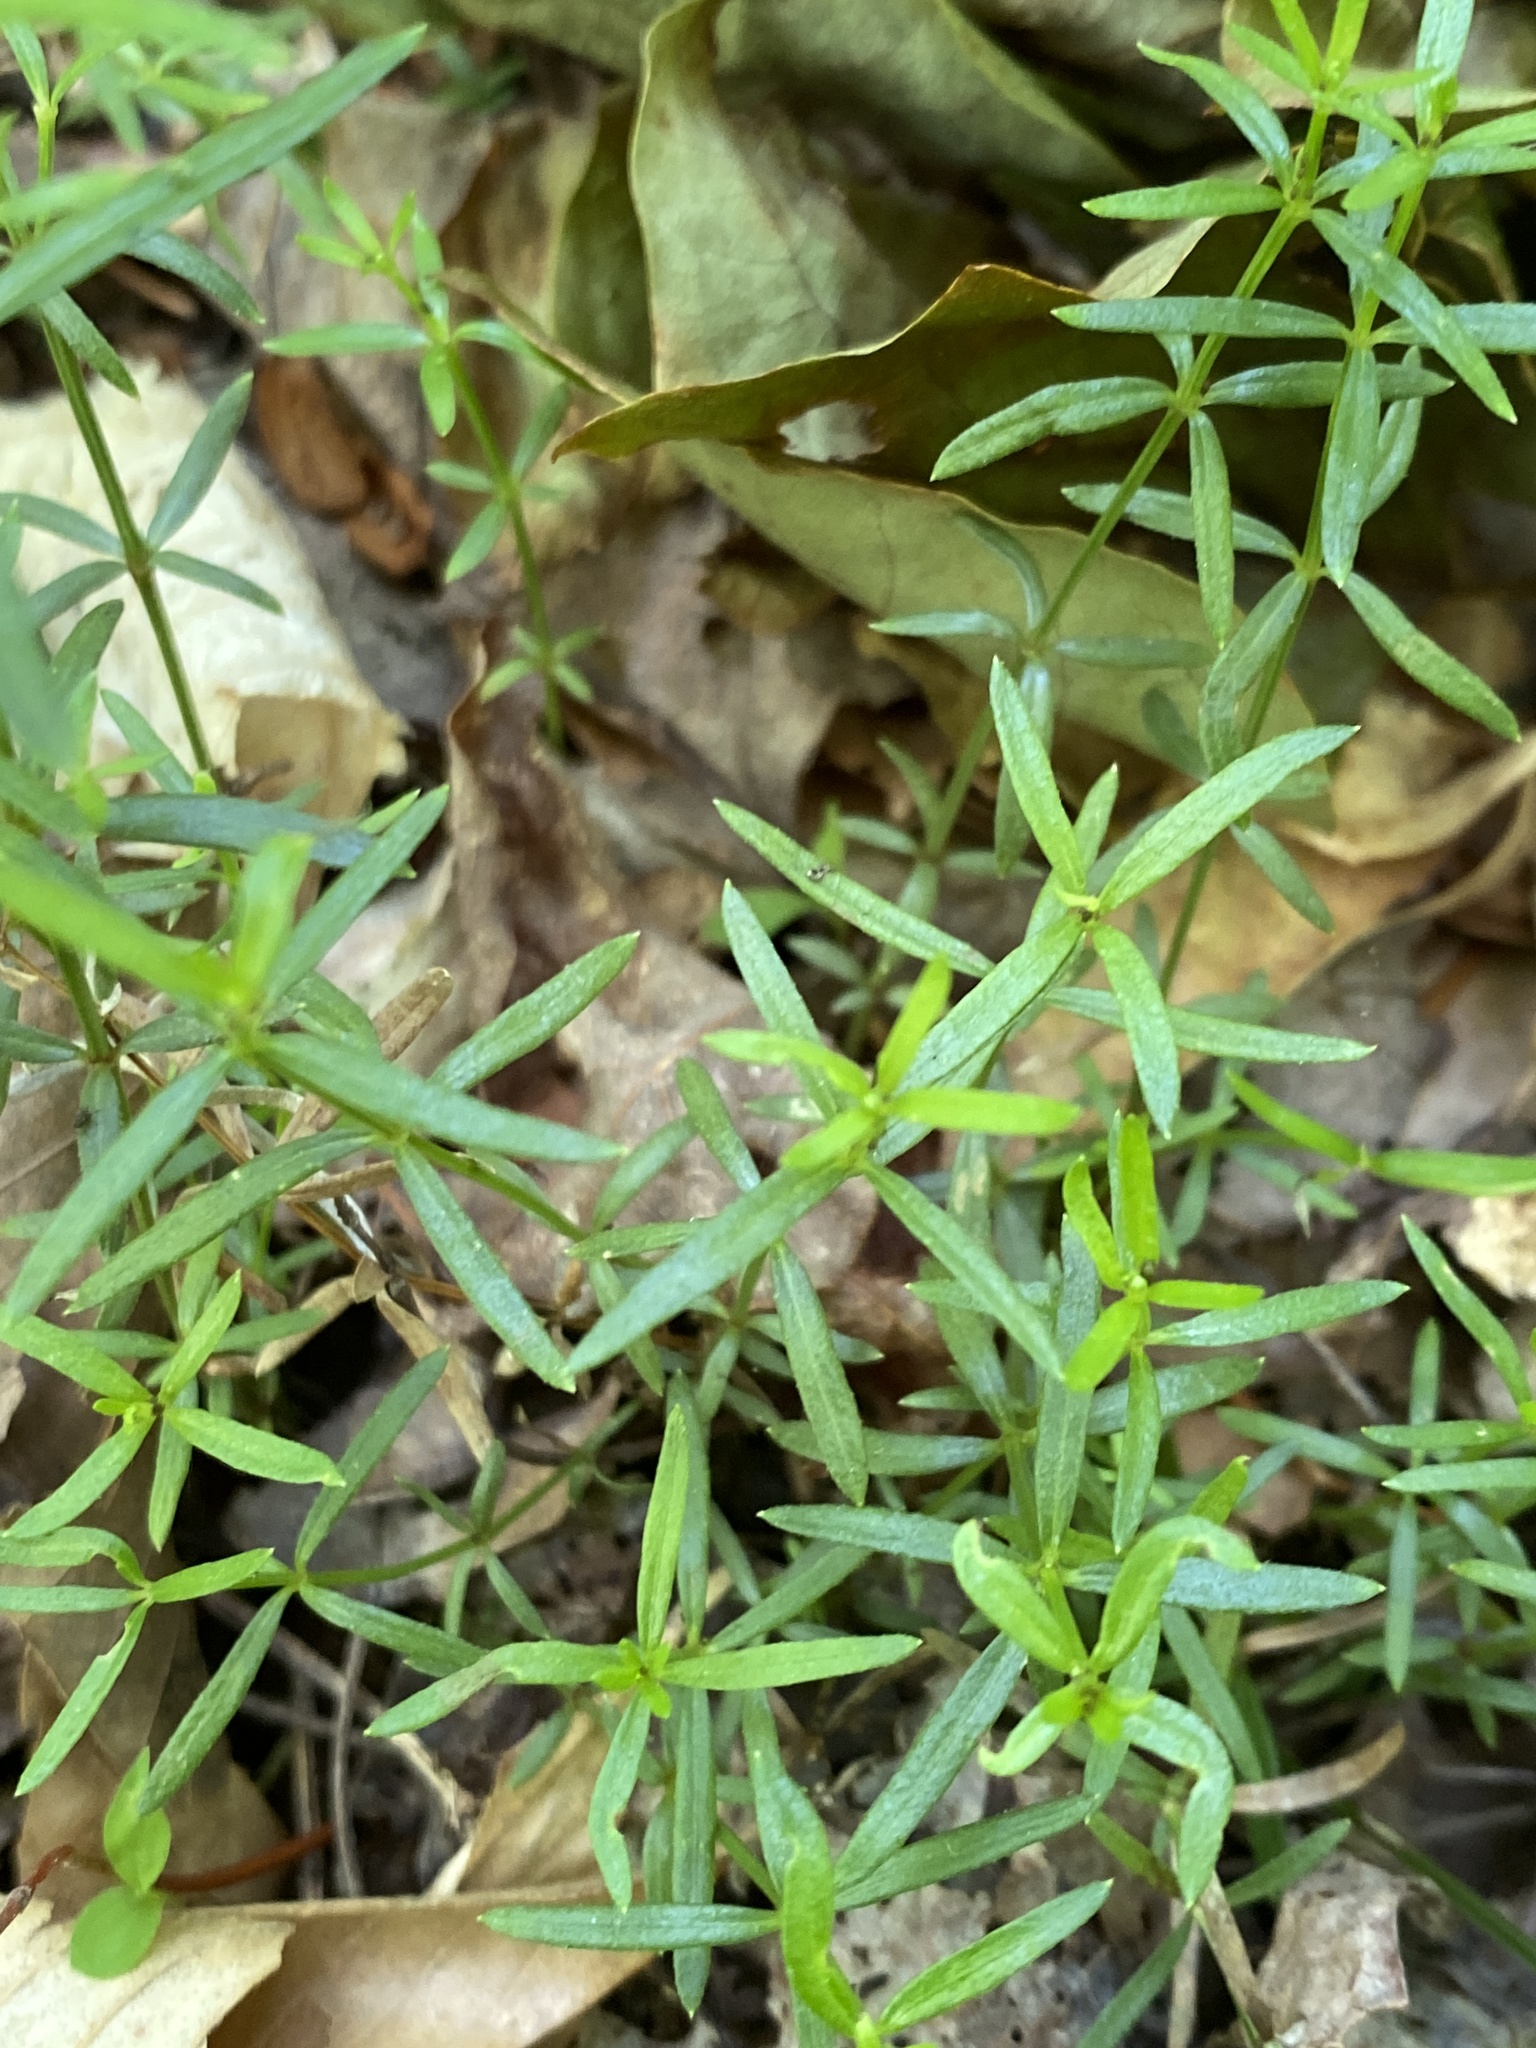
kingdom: Plantae
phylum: Tracheophyta
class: Magnoliopsida
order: Gentianales
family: Rubiaceae
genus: Galium
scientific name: Galium uniflorum
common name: One-flower bedstraw
